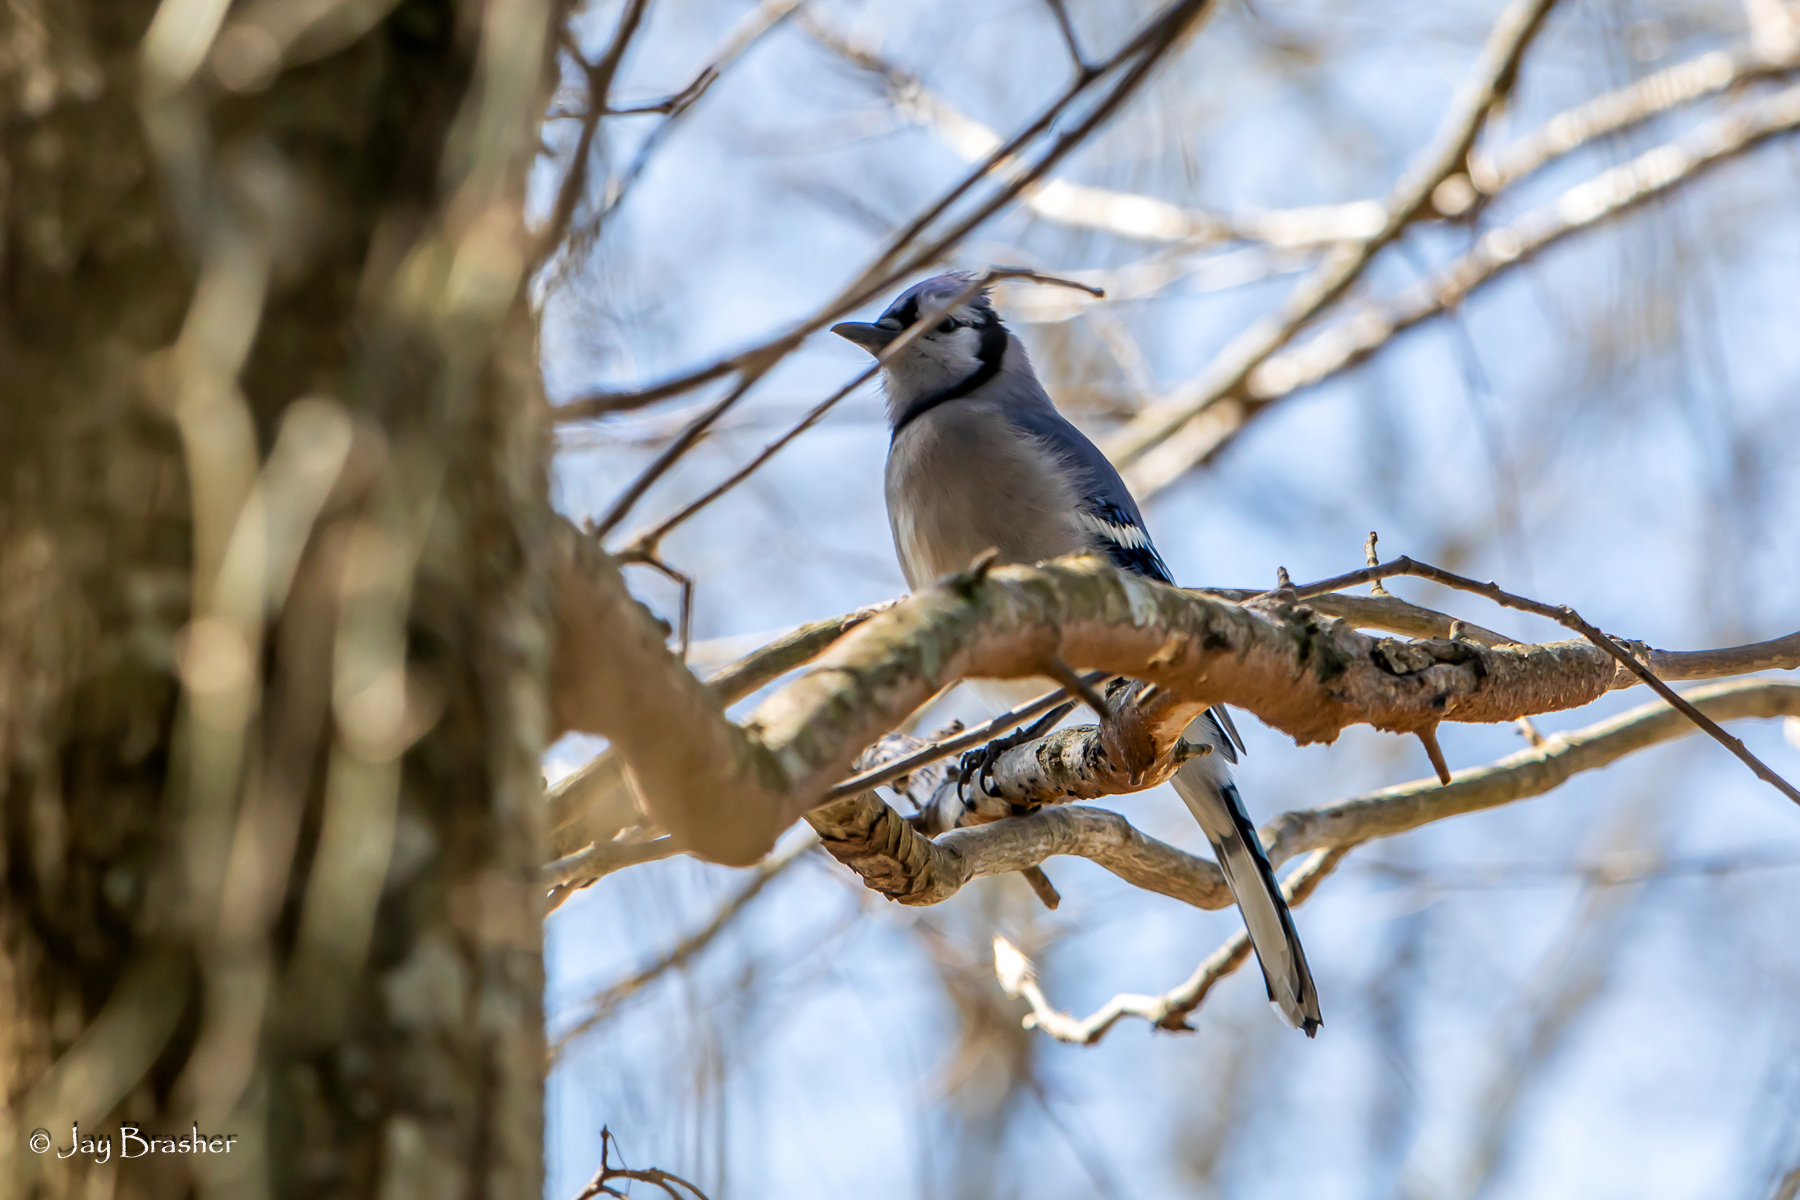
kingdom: Animalia
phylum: Chordata
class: Aves
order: Passeriformes
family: Corvidae
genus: Cyanocitta
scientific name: Cyanocitta cristata
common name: Blue jay
